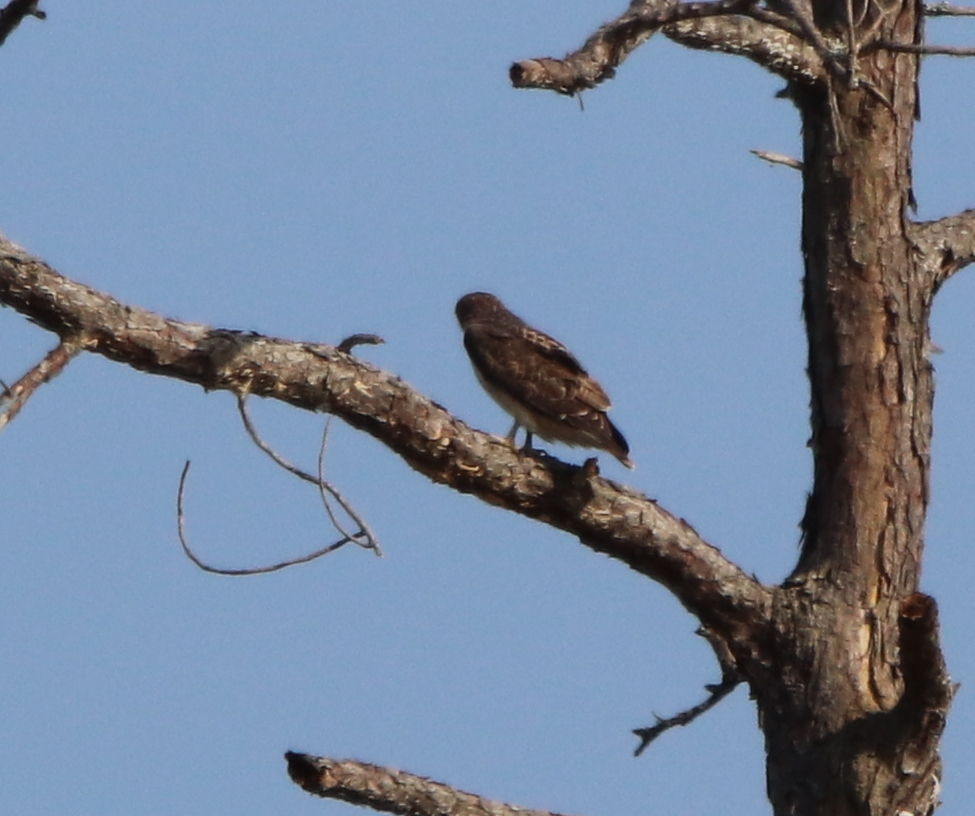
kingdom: Animalia
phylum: Chordata
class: Aves
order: Accipitriformes
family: Accipitridae
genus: Buteo
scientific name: Buteo jamaicensis
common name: Red-tailed hawk
